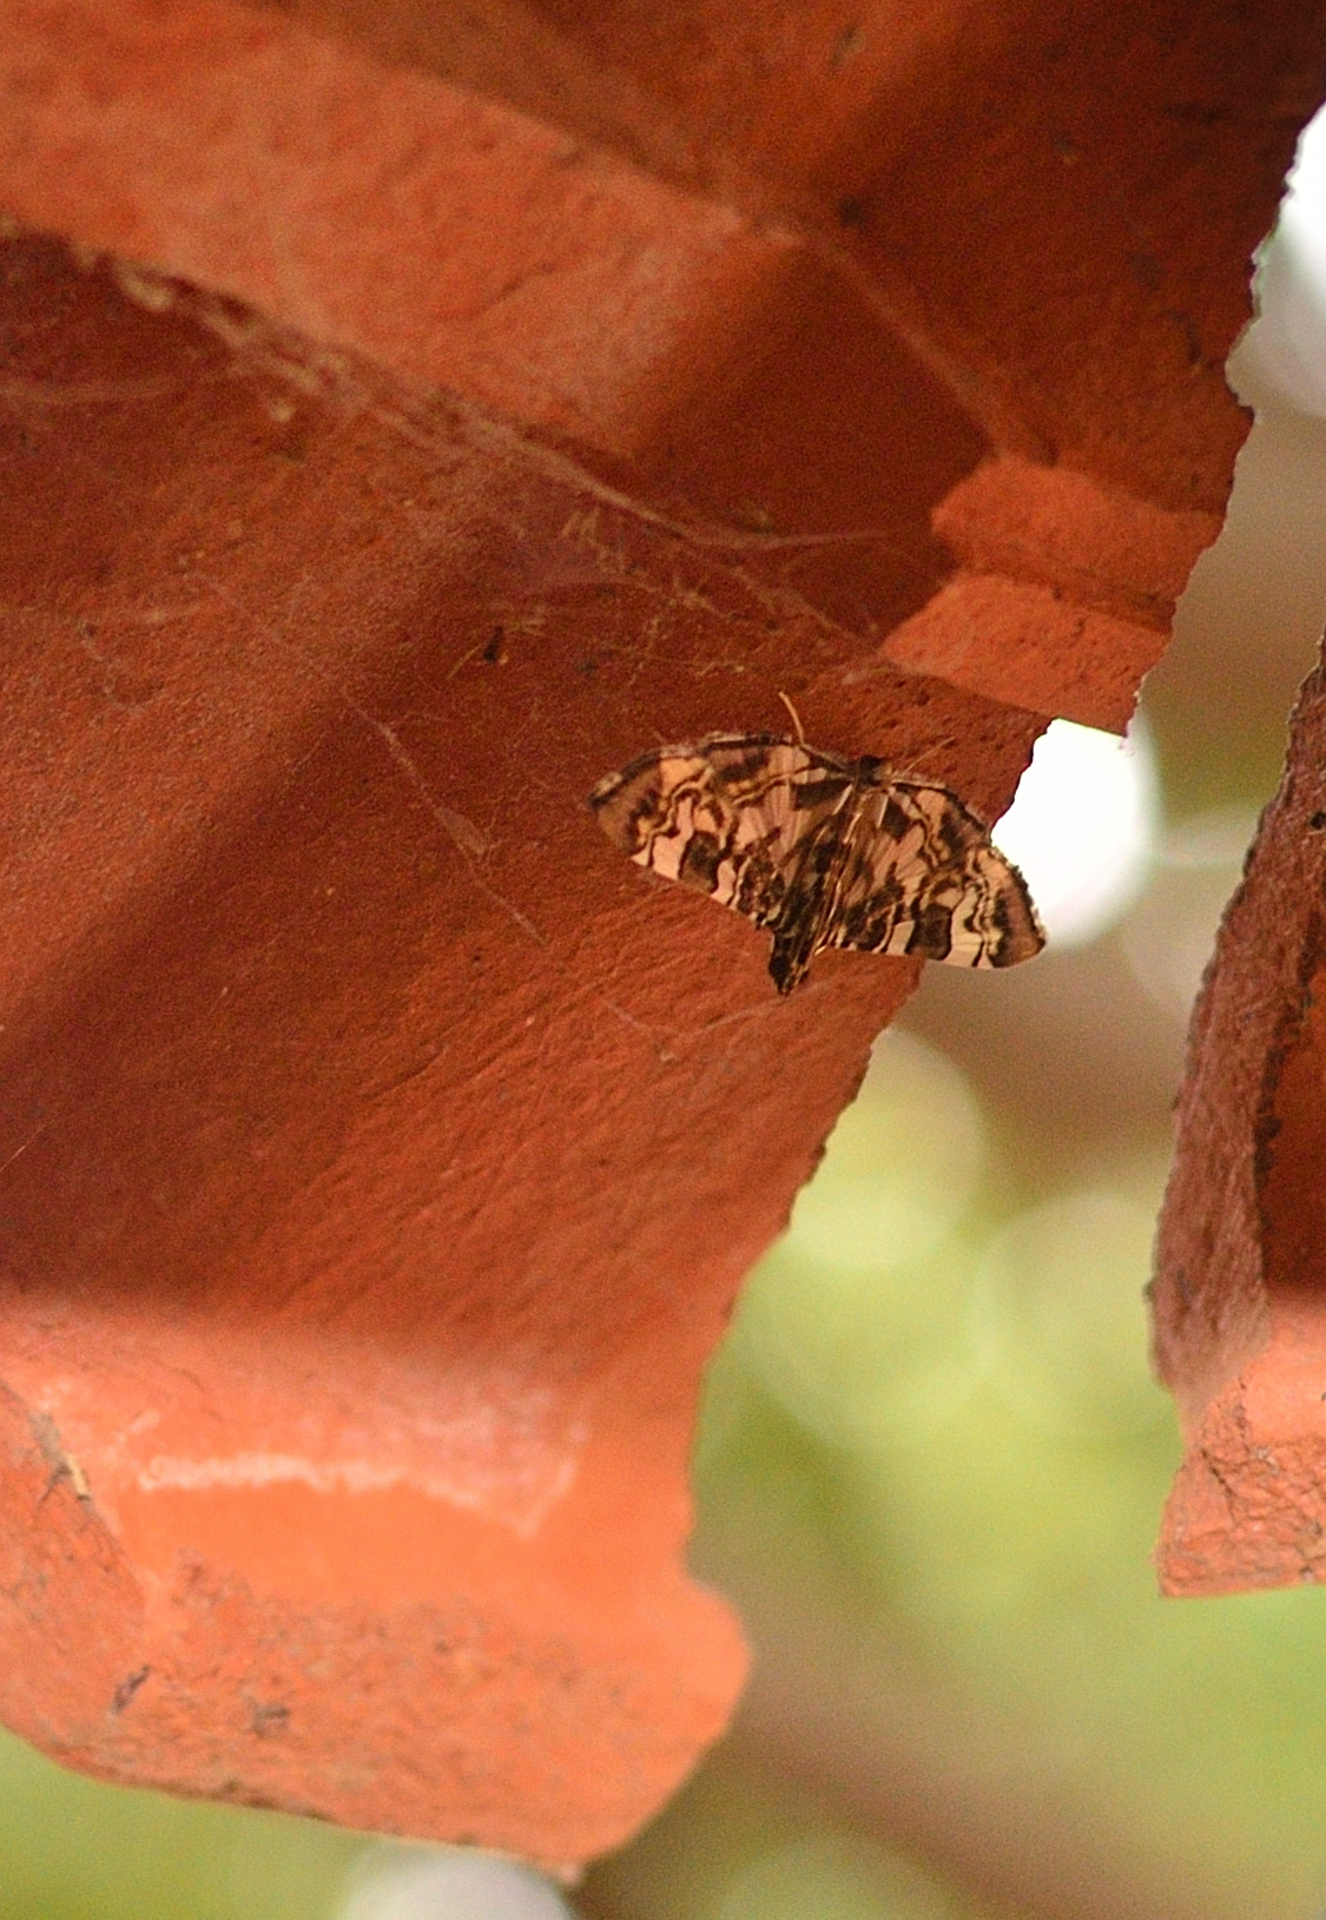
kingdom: Animalia
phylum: Arthropoda
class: Insecta
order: Lepidoptera
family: Crambidae
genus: Chabula
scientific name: Chabula acamasalis
